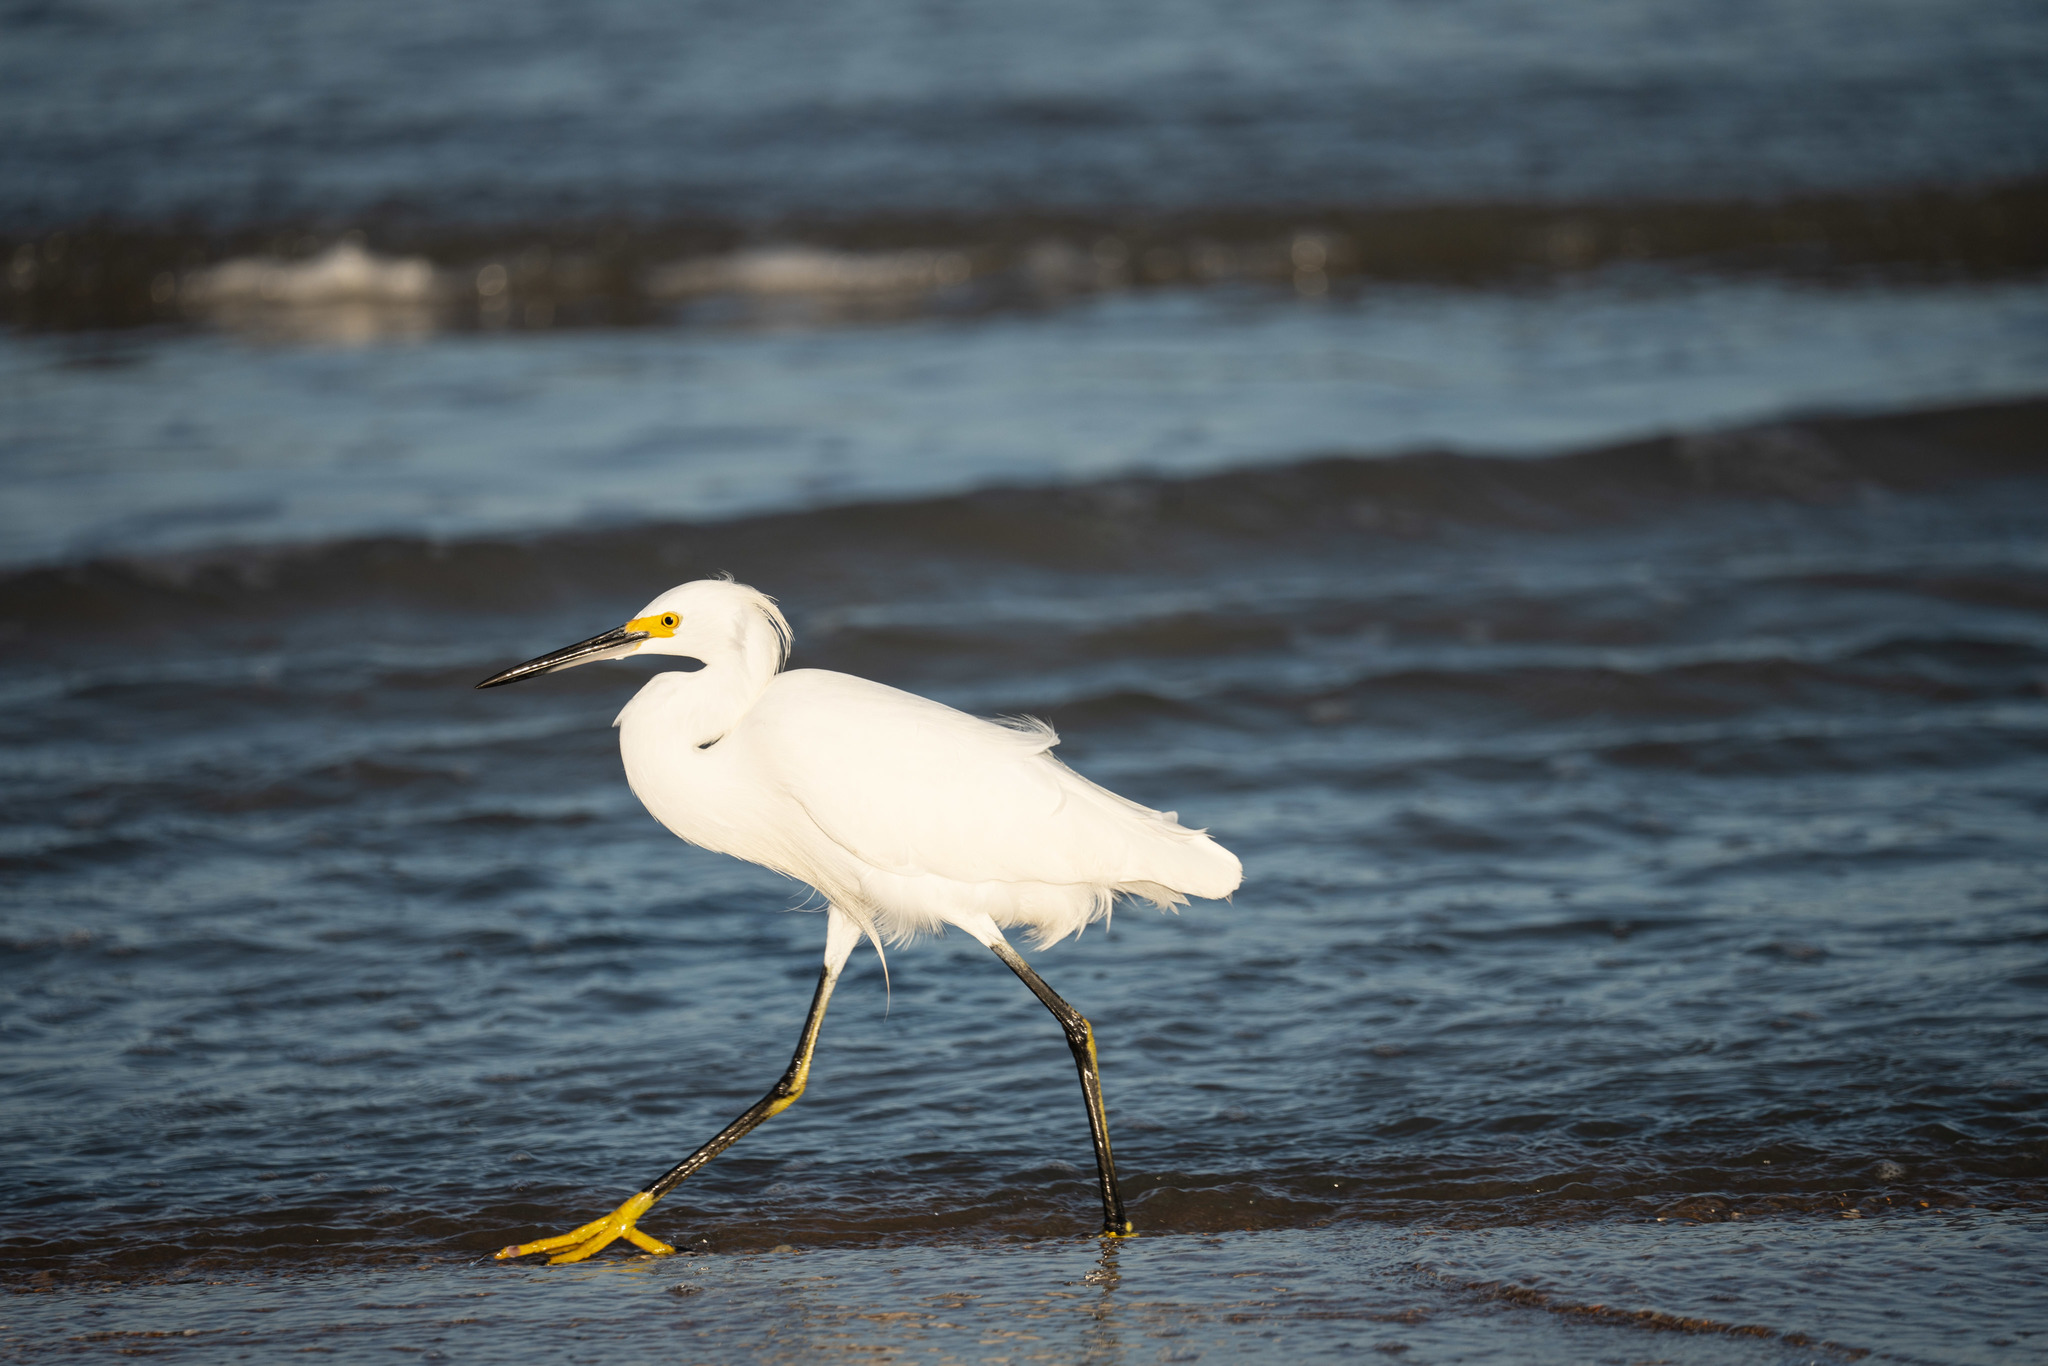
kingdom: Animalia
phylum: Chordata
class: Aves
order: Pelecaniformes
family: Ardeidae
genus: Egretta
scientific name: Egretta thula
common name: Snowy egret
